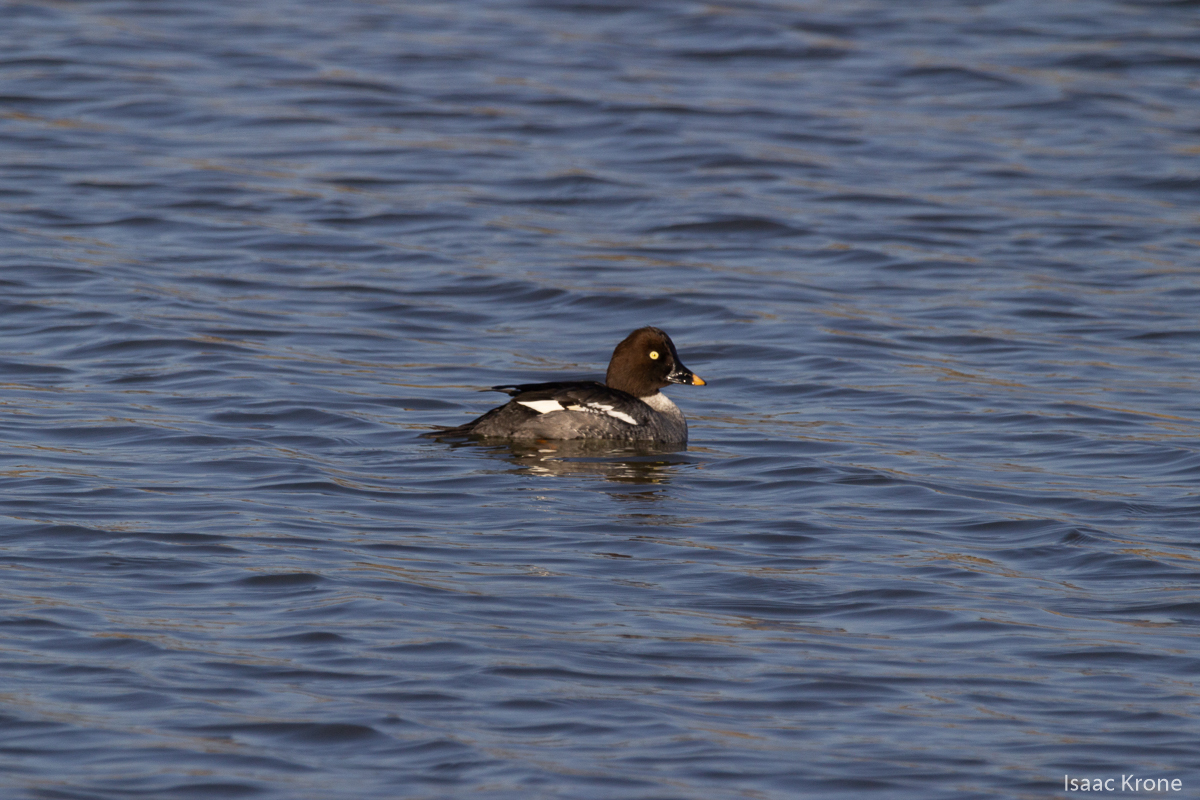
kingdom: Animalia
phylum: Chordata
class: Aves
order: Anseriformes
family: Anatidae
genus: Bucephala
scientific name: Bucephala clangula
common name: Common goldeneye
